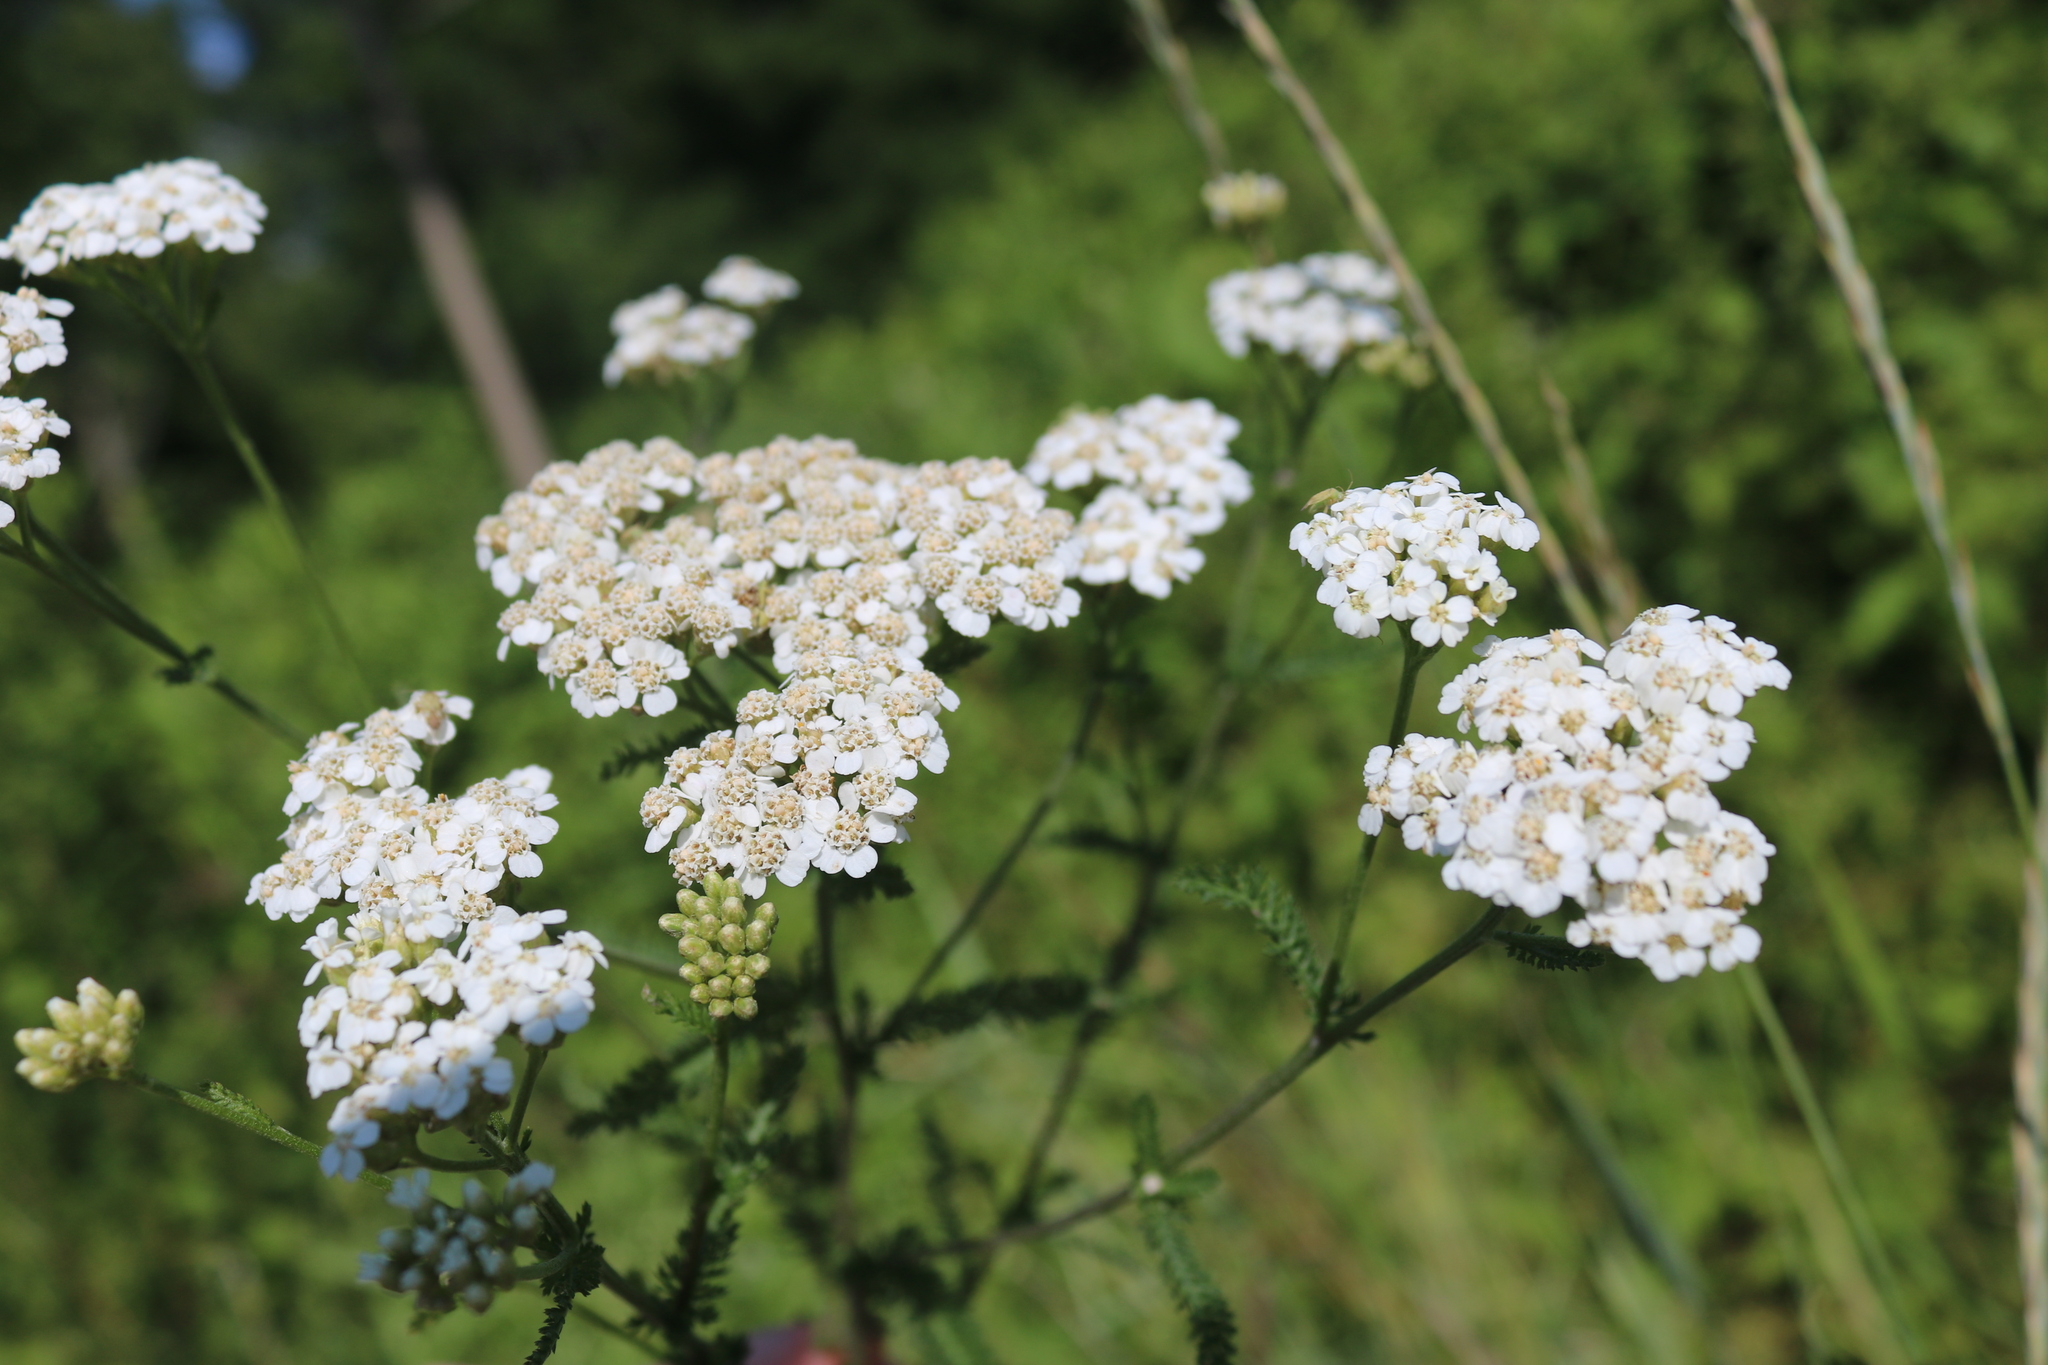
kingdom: Plantae
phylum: Tracheophyta
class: Magnoliopsida
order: Asterales
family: Asteraceae
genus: Achillea
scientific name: Achillea millefolium
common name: Yarrow
